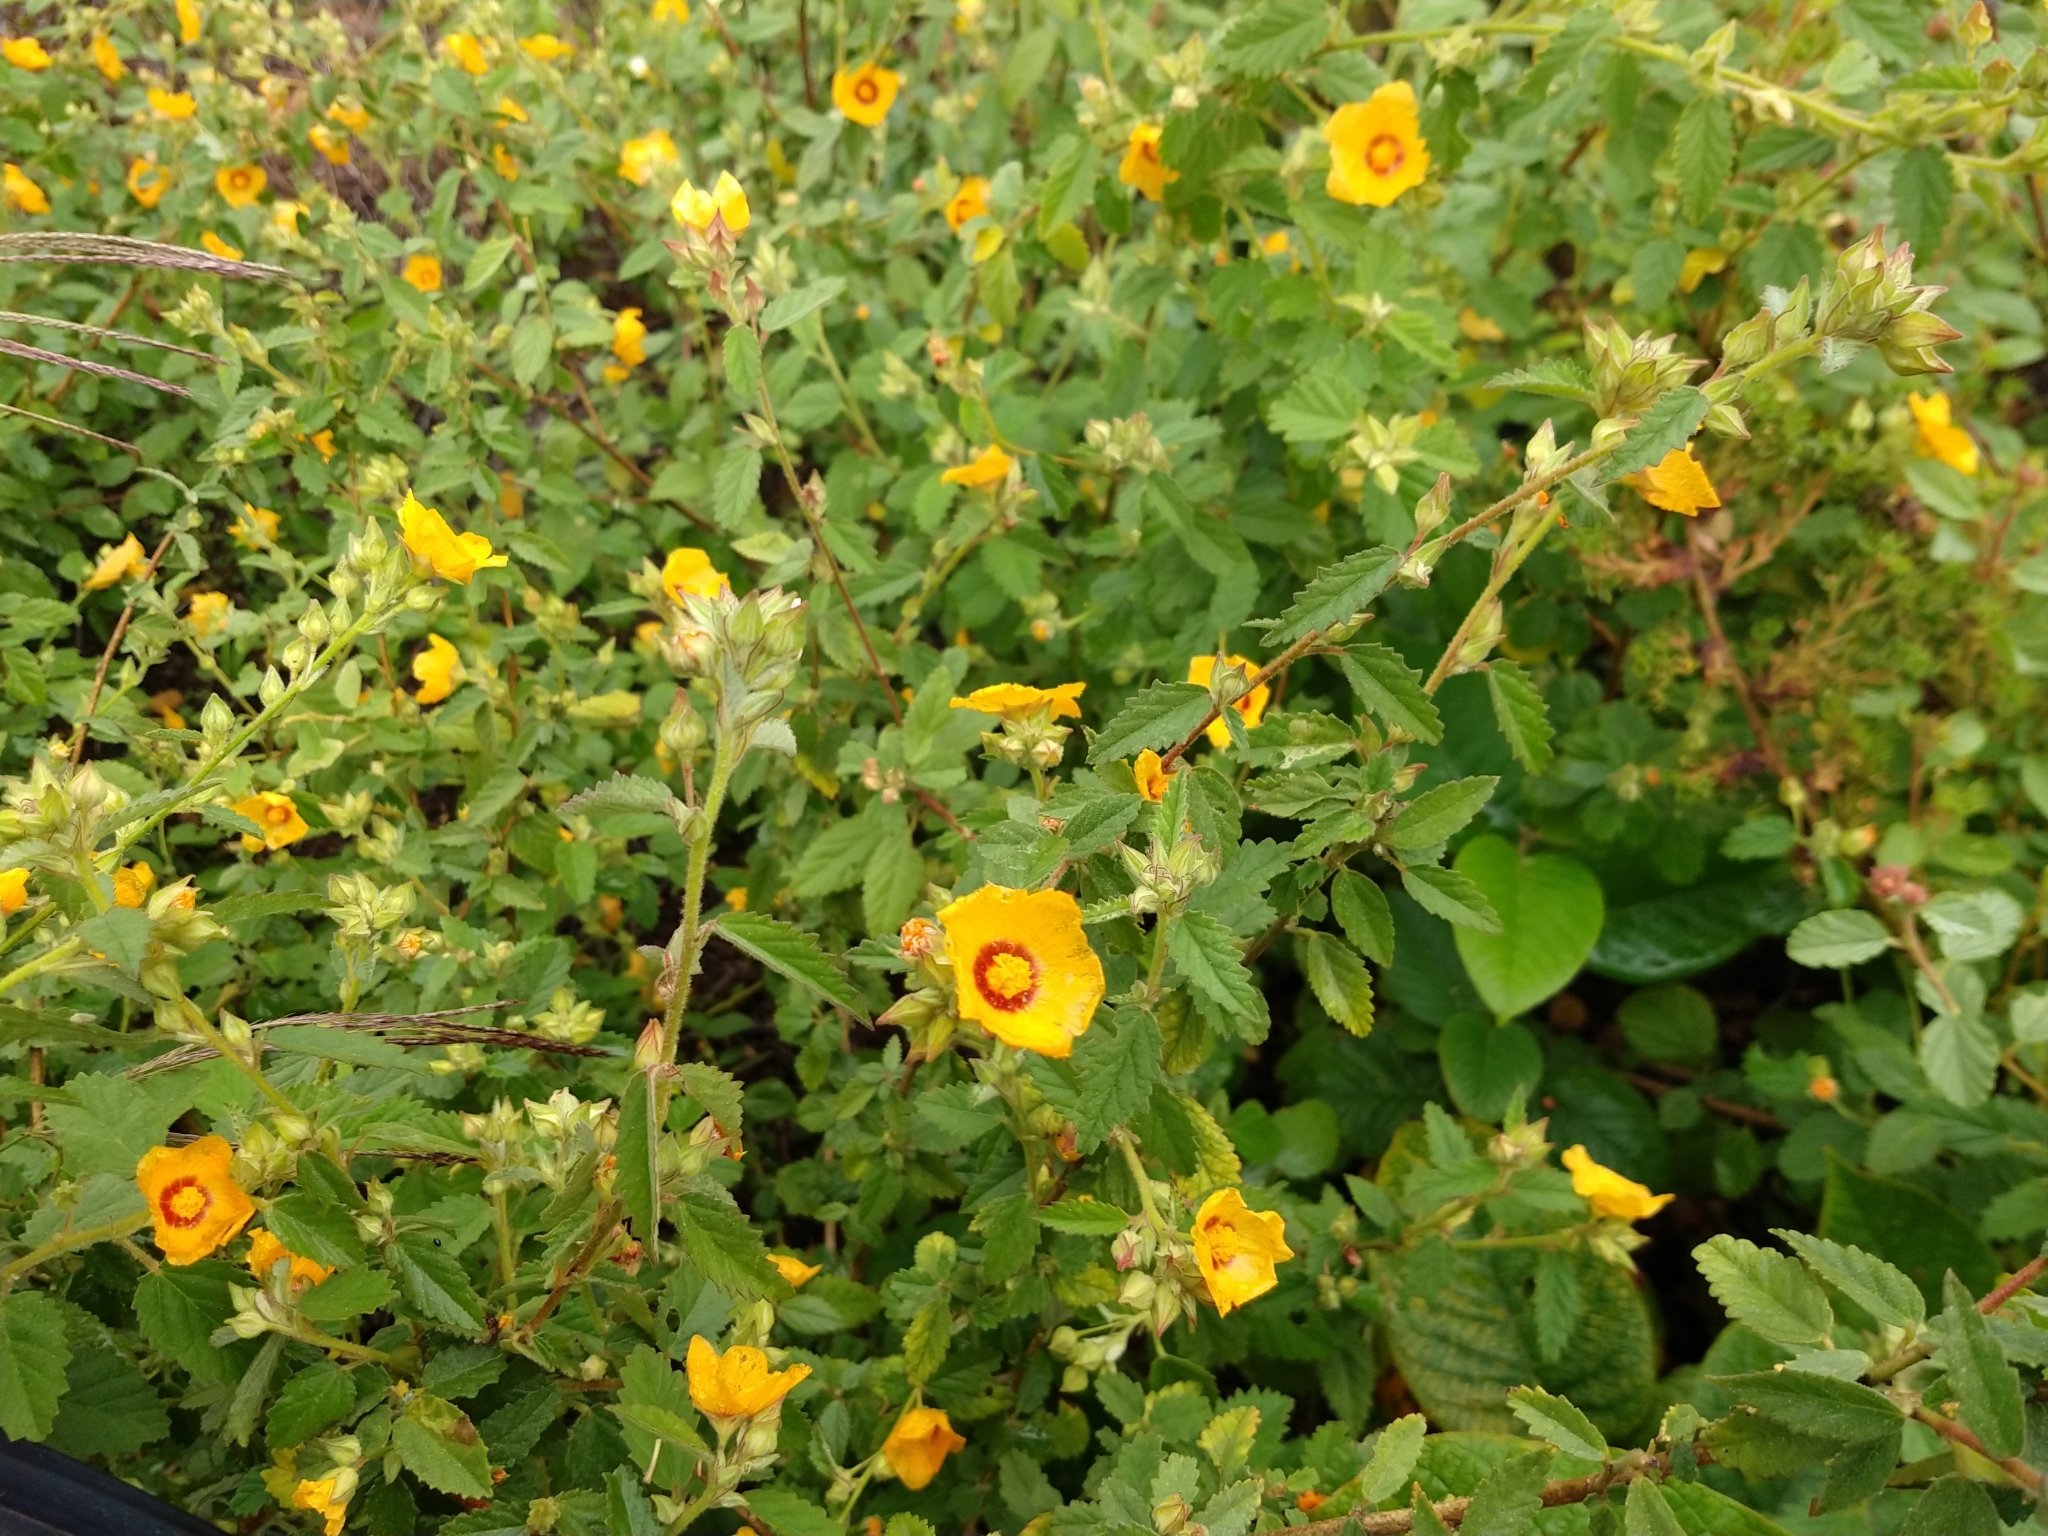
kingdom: Plantae
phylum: Tracheophyta
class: Magnoliopsida
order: Malvales
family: Malvaceae
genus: Sida
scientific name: Sida galheirensis
